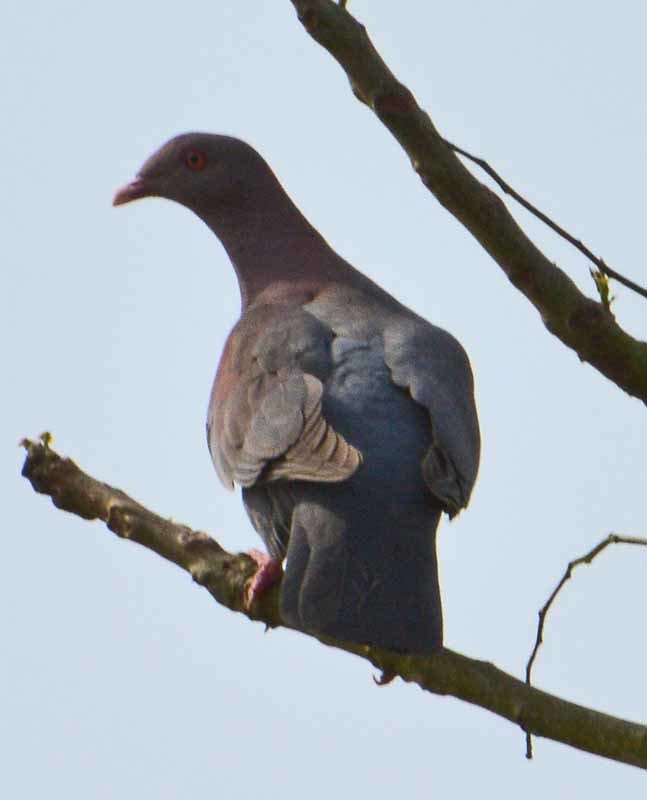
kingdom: Animalia
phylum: Chordata
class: Aves
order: Columbiformes
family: Columbidae
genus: Patagioenas
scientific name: Patagioenas flavirostris
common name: Red-billed pigeon
